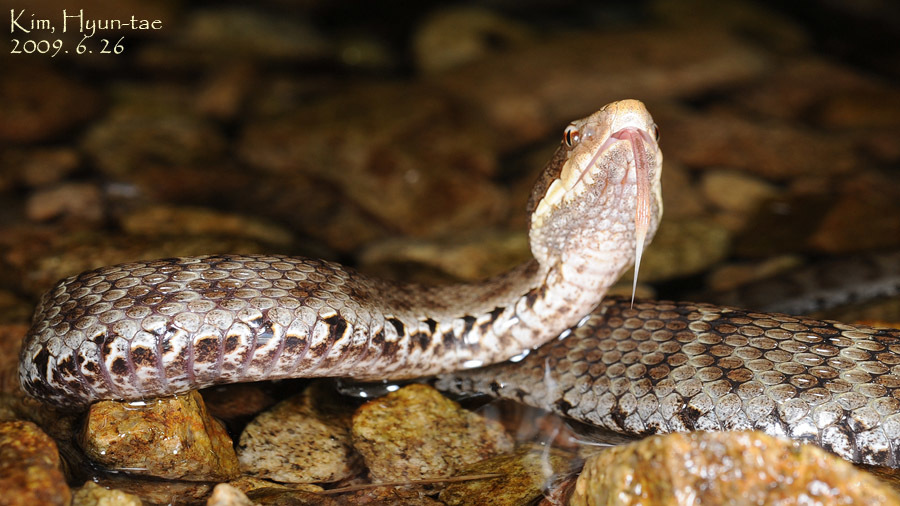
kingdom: Animalia
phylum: Chordata
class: Squamata
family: Viperidae
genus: Gloydius
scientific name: Gloydius ussuriensis
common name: Ussuri mamushi
